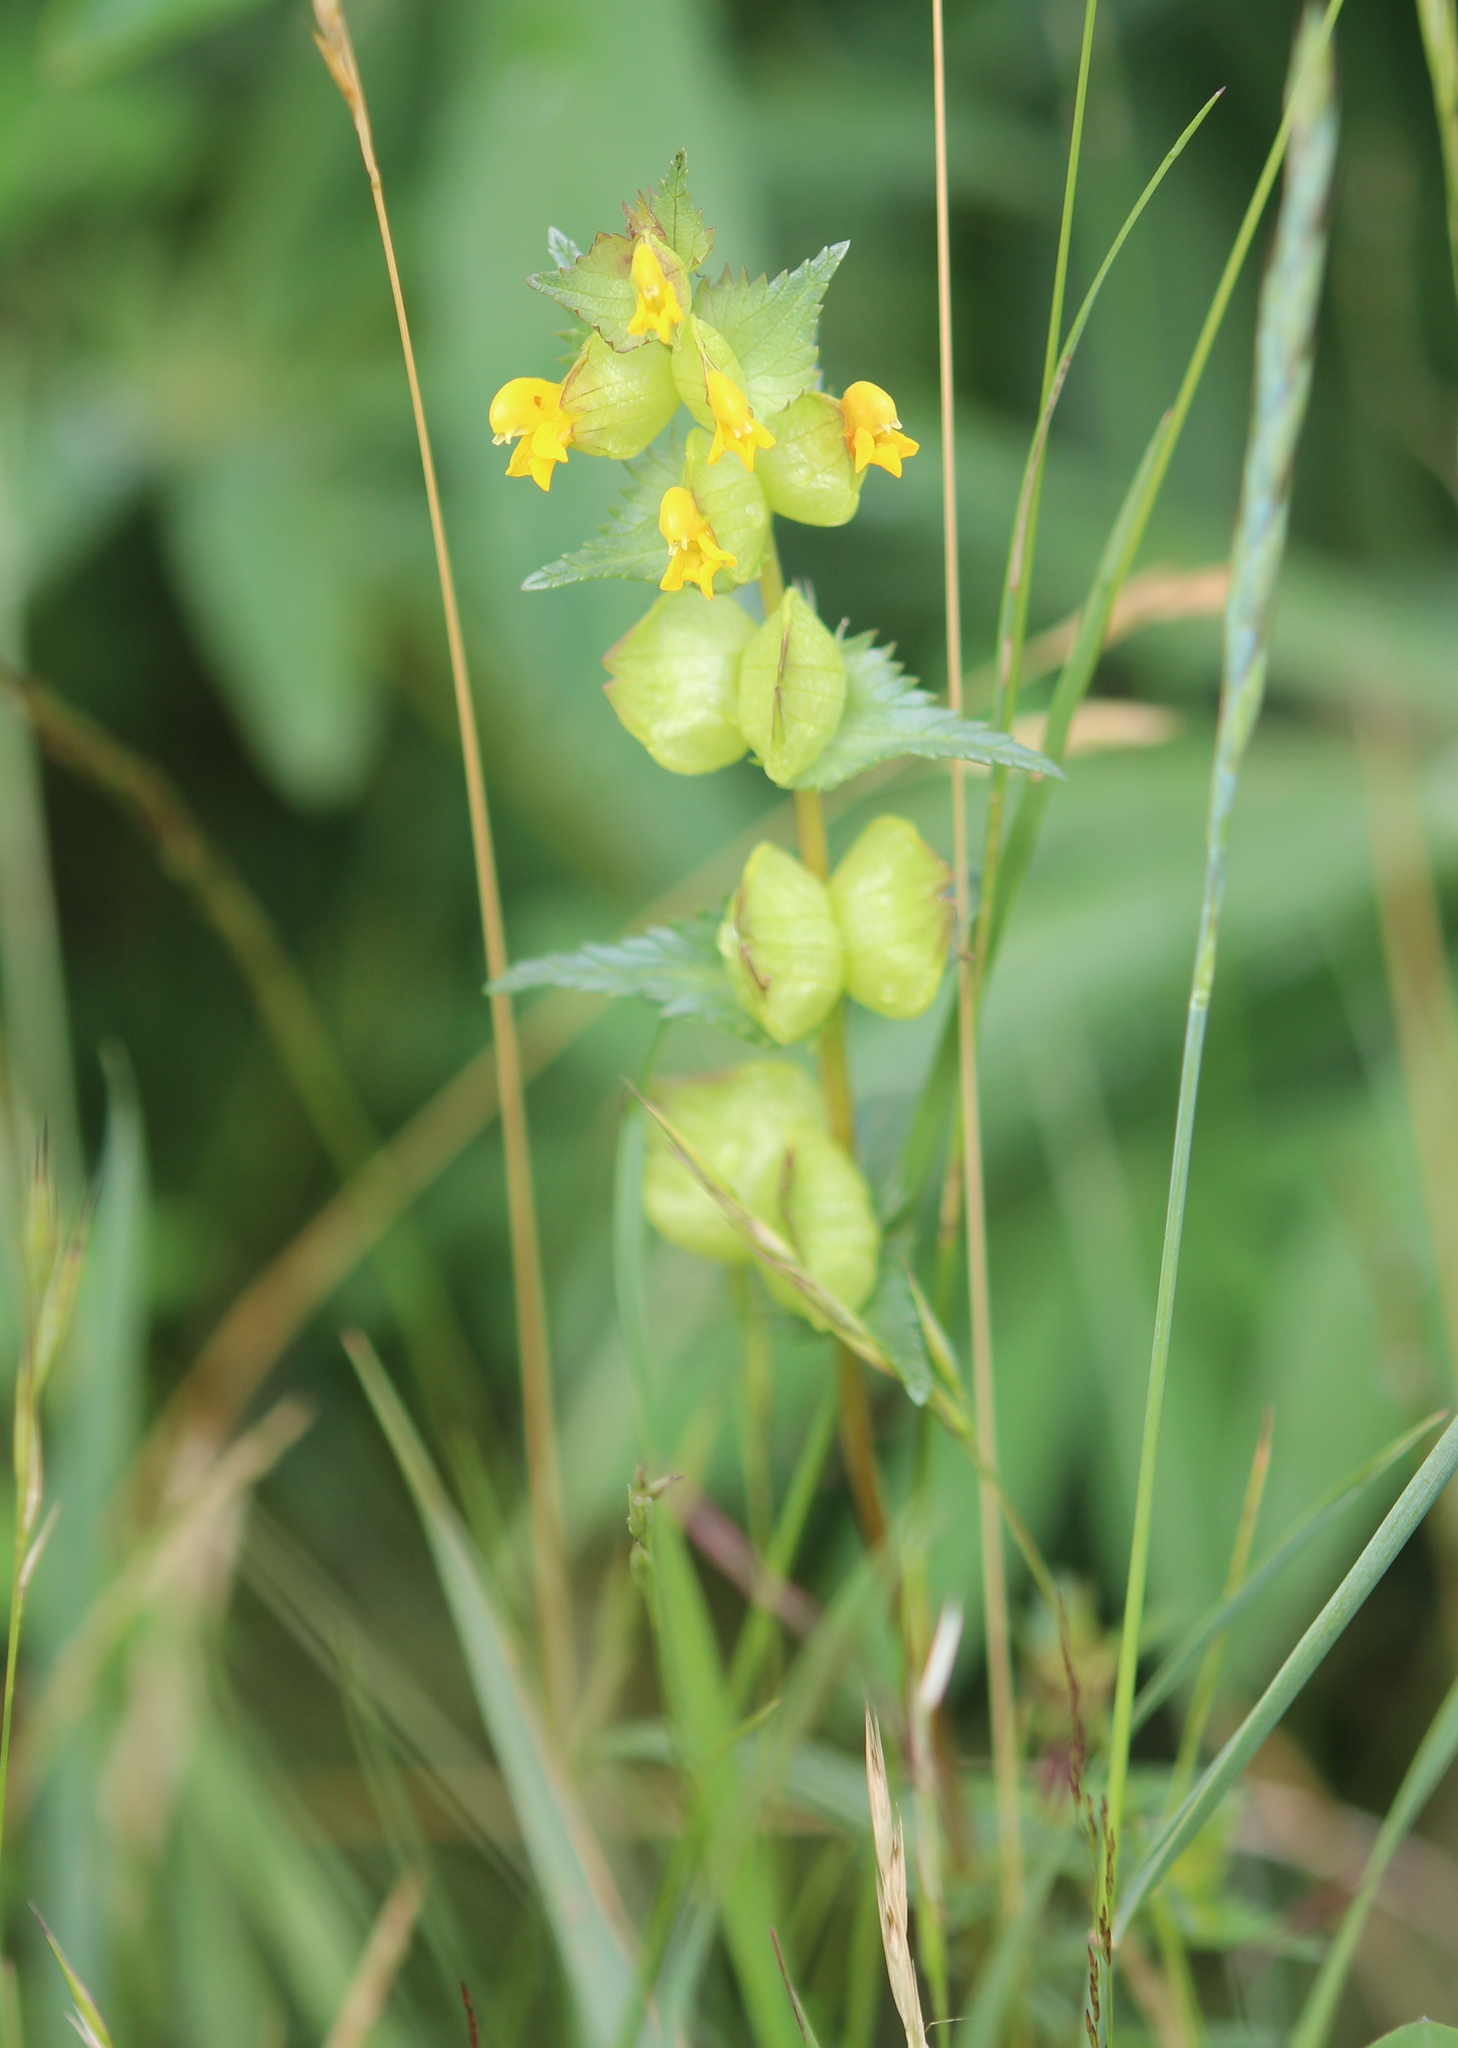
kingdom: Plantae
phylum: Tracheophyta
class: Magnoliopsida
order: Lamiales
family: Orobanchaceae
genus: Rhinanthus
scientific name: Rhinanthus minor
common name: Yellow-rattle
